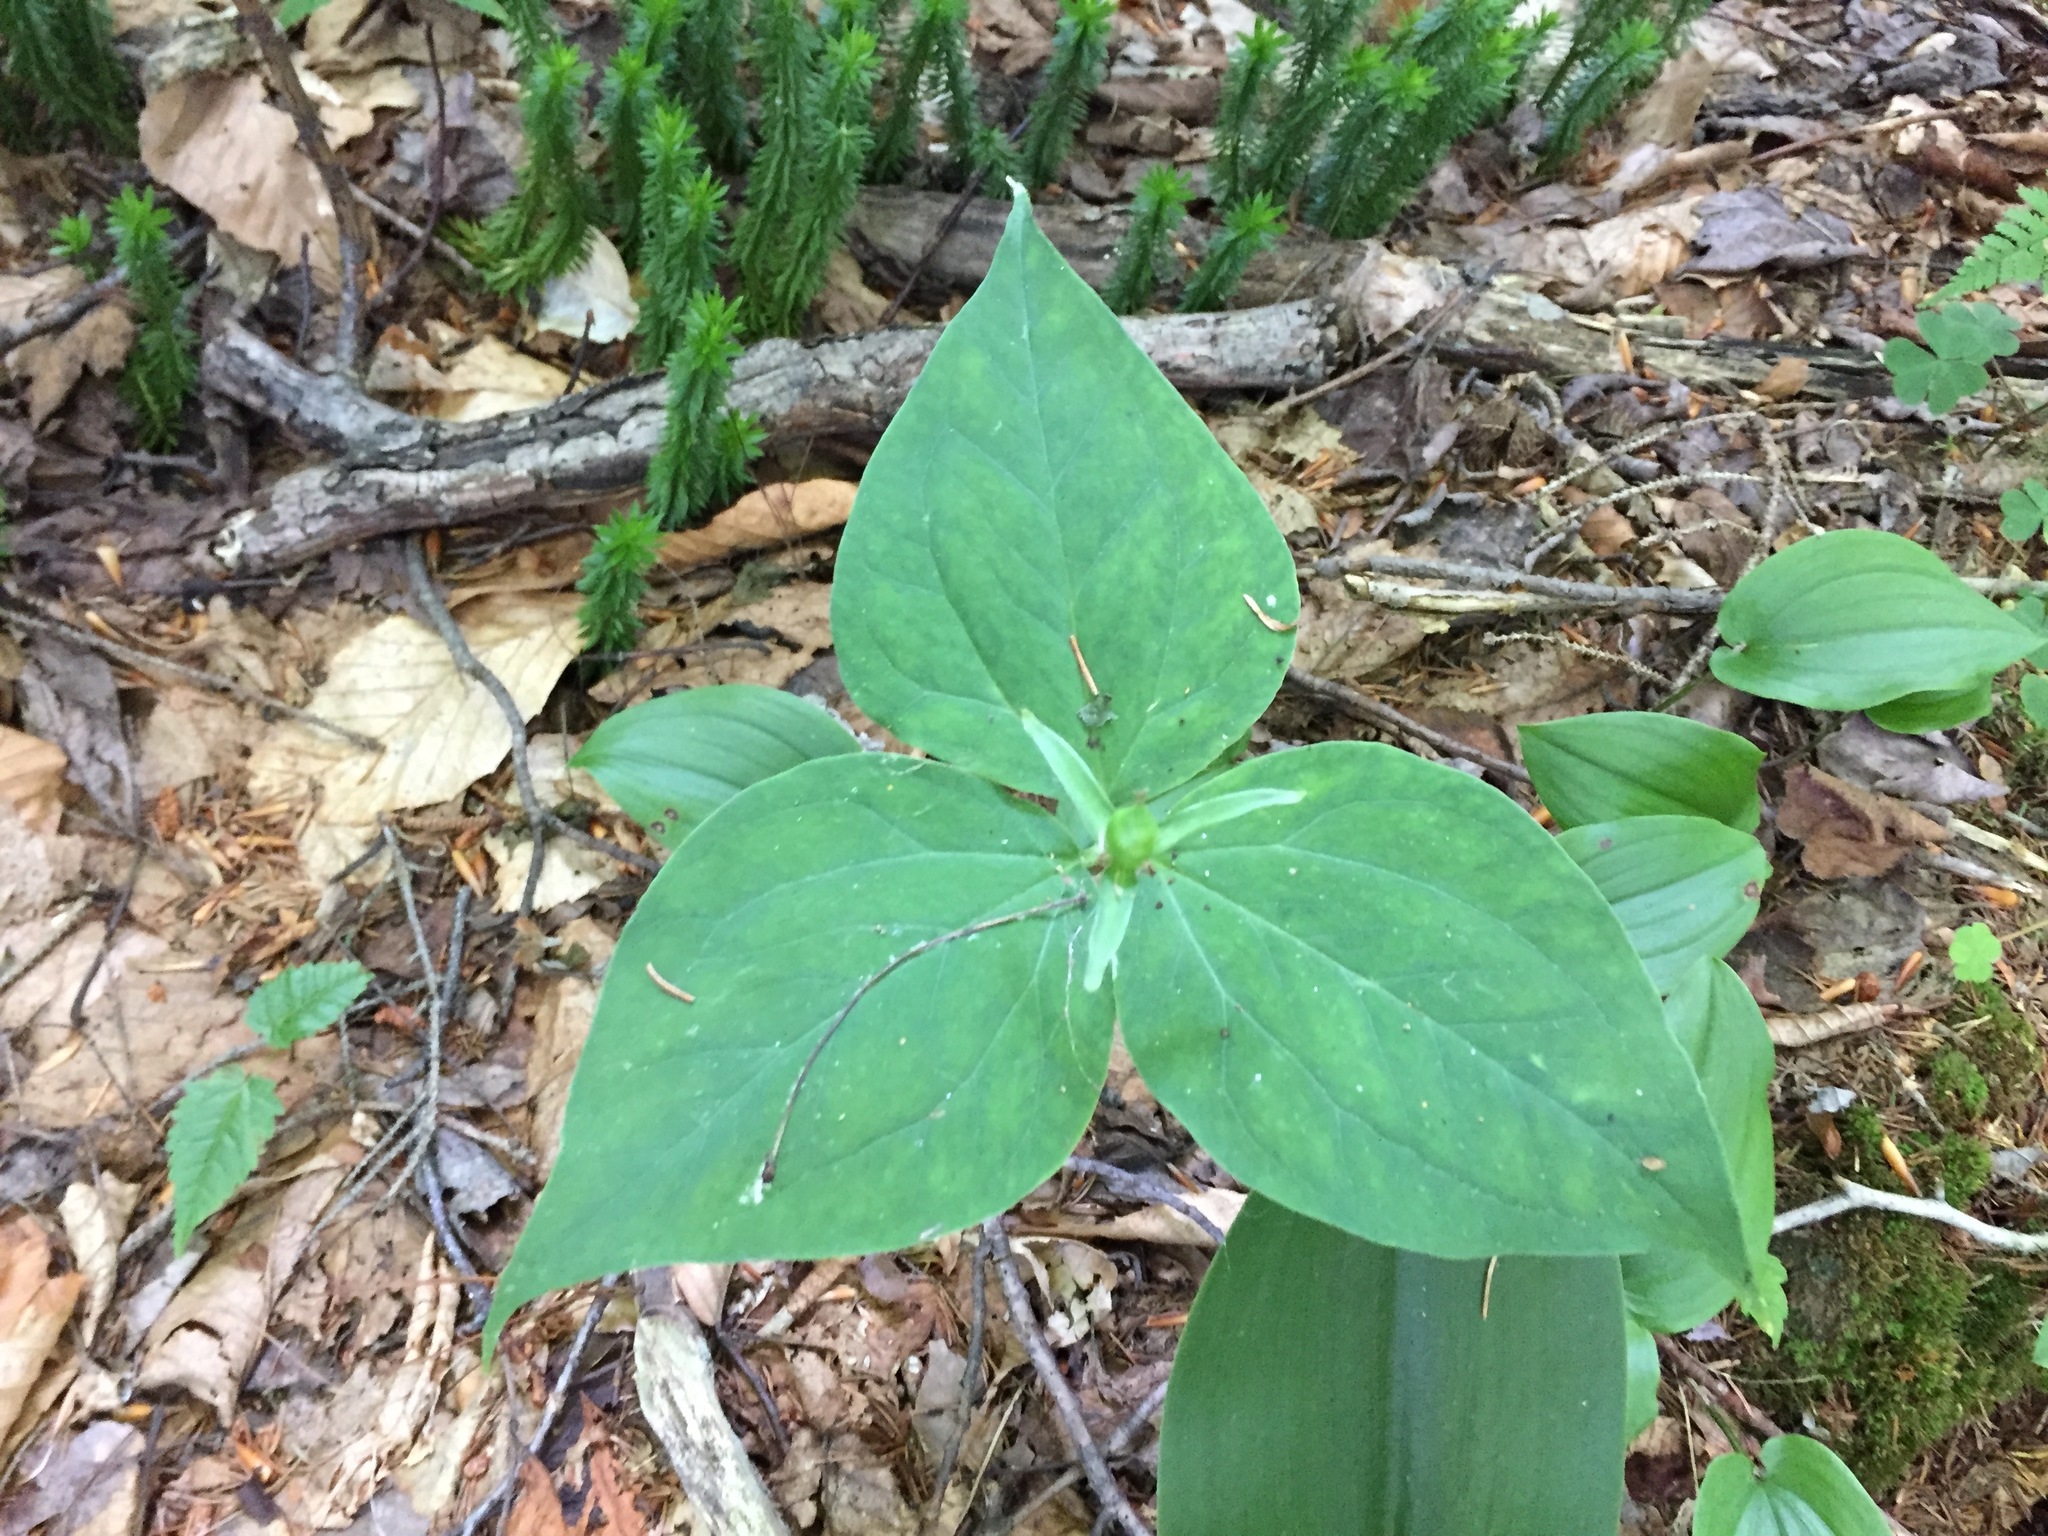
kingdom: Plantae
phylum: Tracheophyta
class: Liliopsida
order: Liliales
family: Melanthiaceae
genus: Trillium
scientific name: Trillium undulatum
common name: Paint trillium
